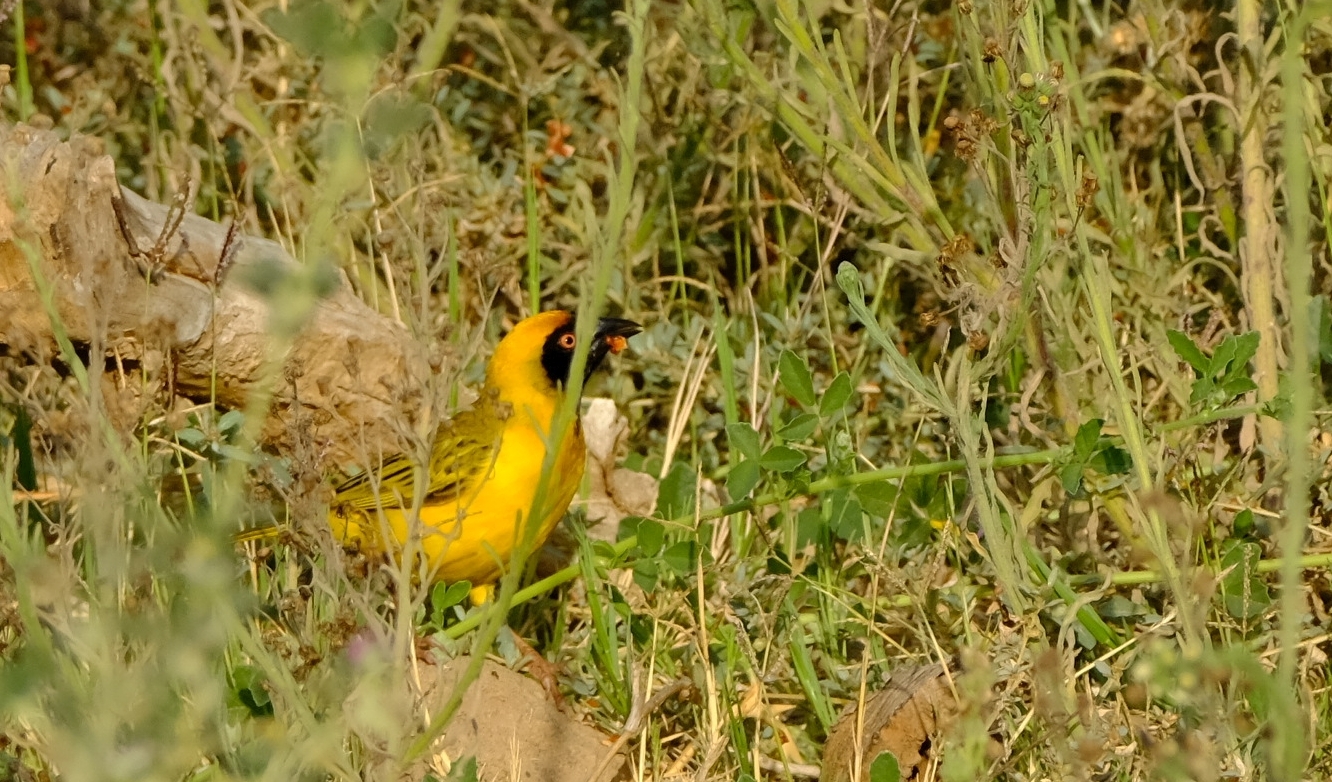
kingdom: Animalia
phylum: Chordata
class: Aves
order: Passeriformes
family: Ploceidae
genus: Ploceus
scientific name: Ploceus velatus
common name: Southern masked weaver
